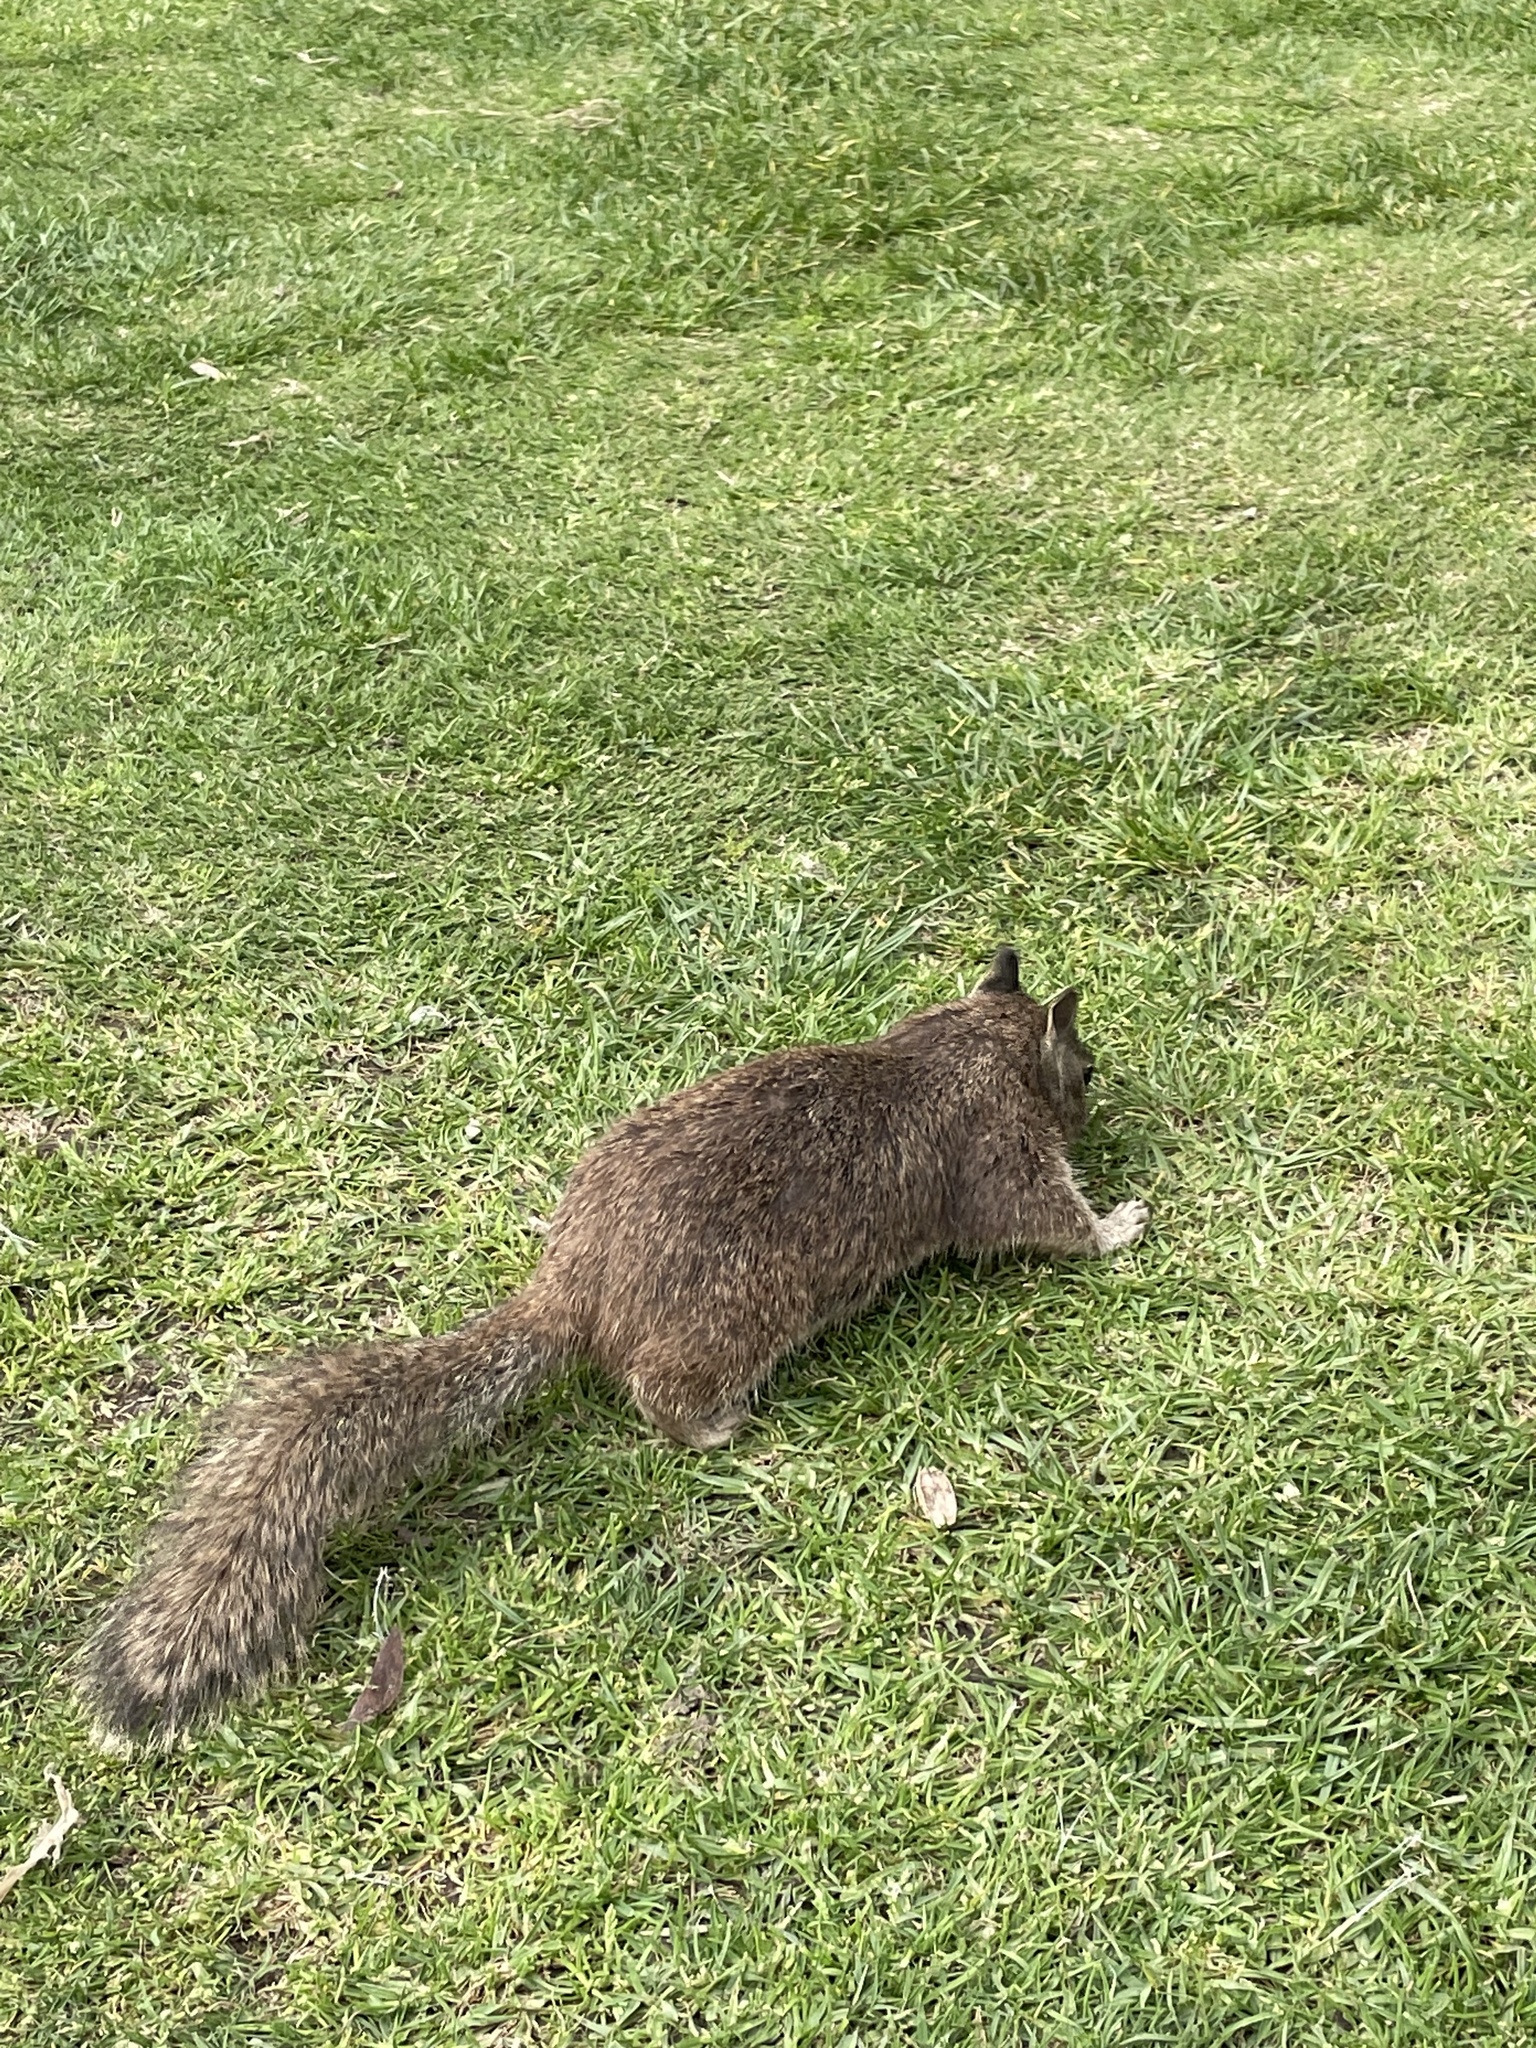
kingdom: Animalia
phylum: Chordata
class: Mammalia
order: Rodentia
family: Sciuridae
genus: Otospermophilus
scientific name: Otospermophilus beecheyi
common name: California ground squirrel
